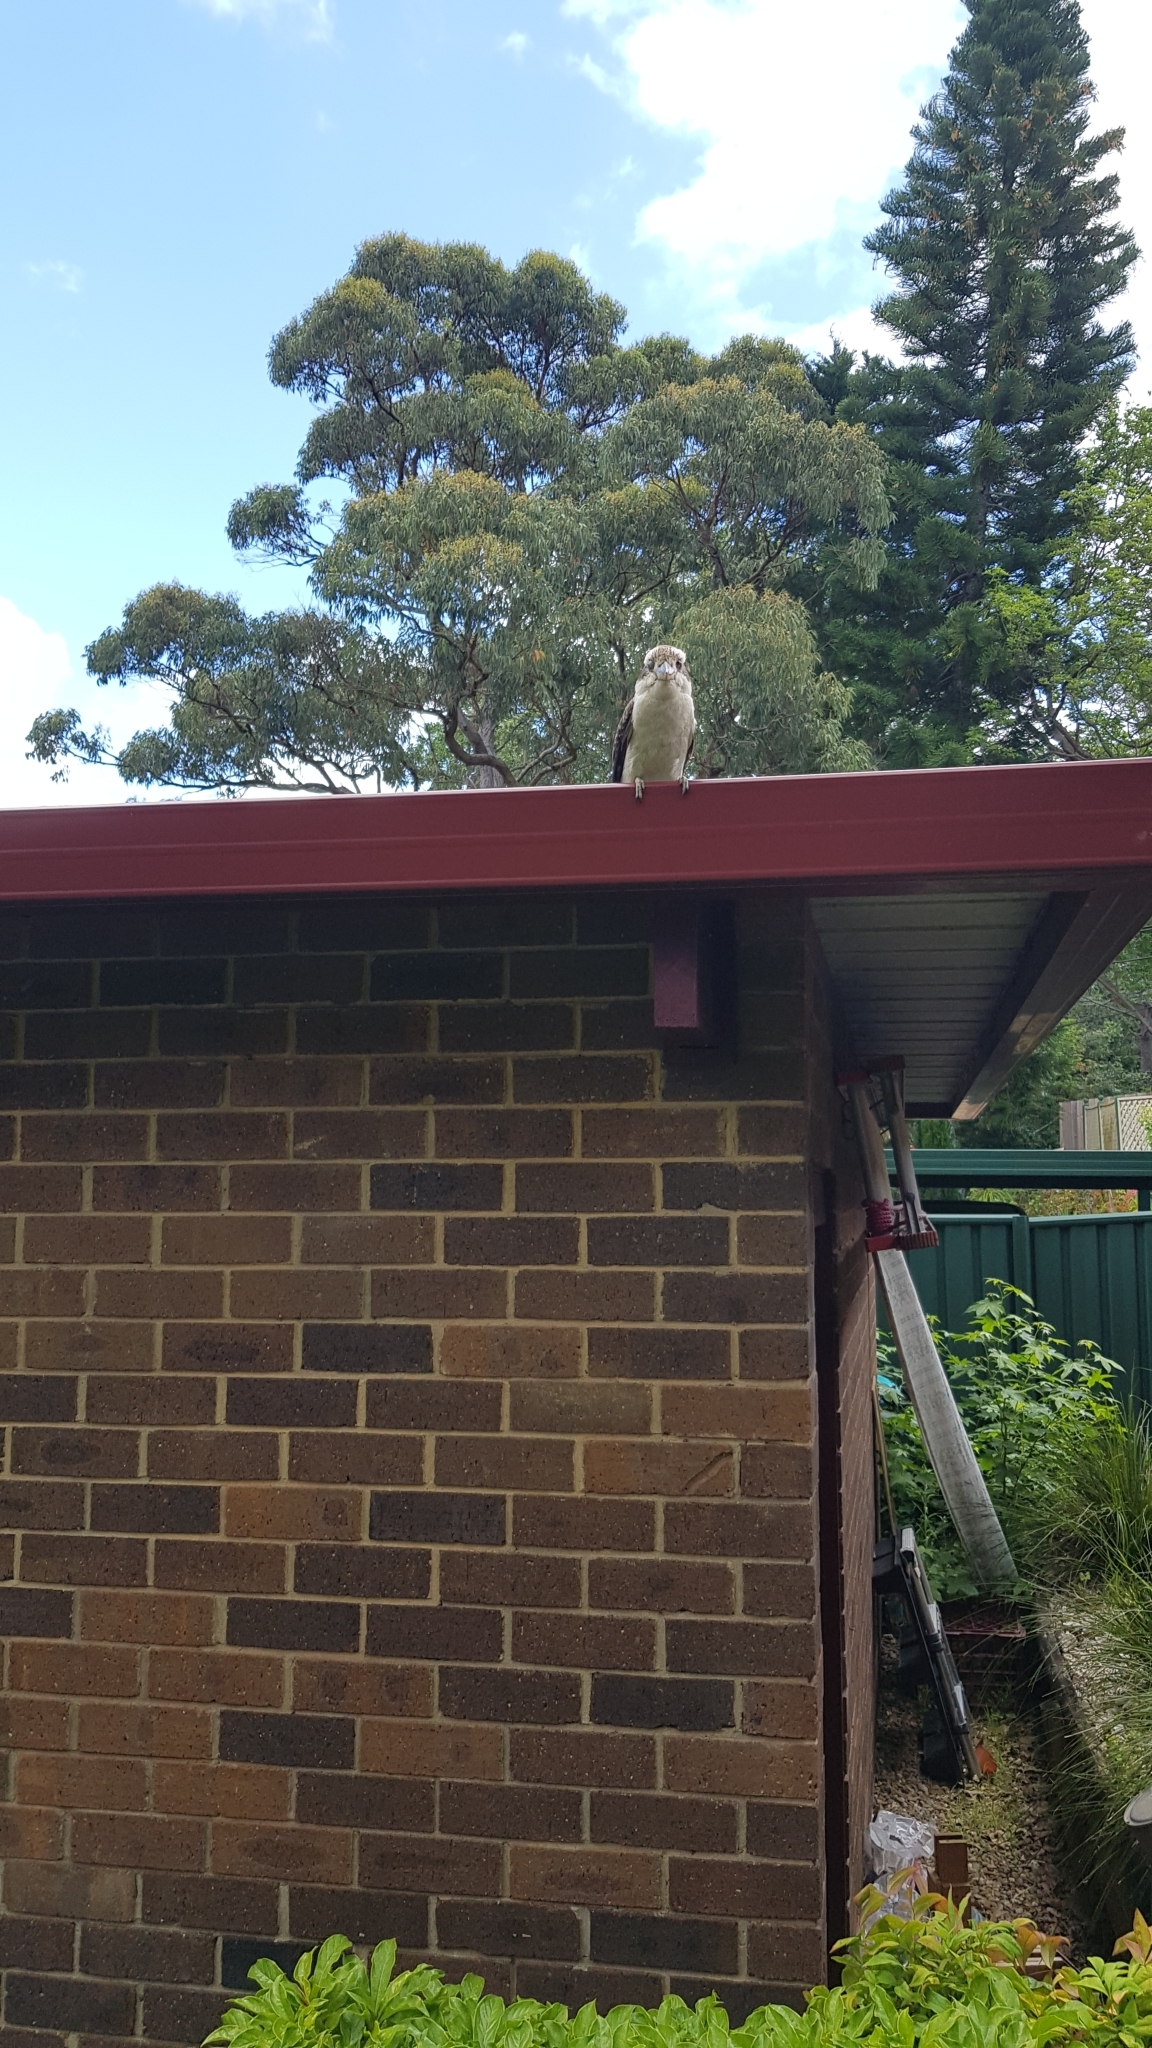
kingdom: Animalia
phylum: Chordata
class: Aves
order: Coraciiformes
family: Alcedinidae
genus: Dacelo
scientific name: Dacelo novaeguineae
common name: Laughing kookaburra
